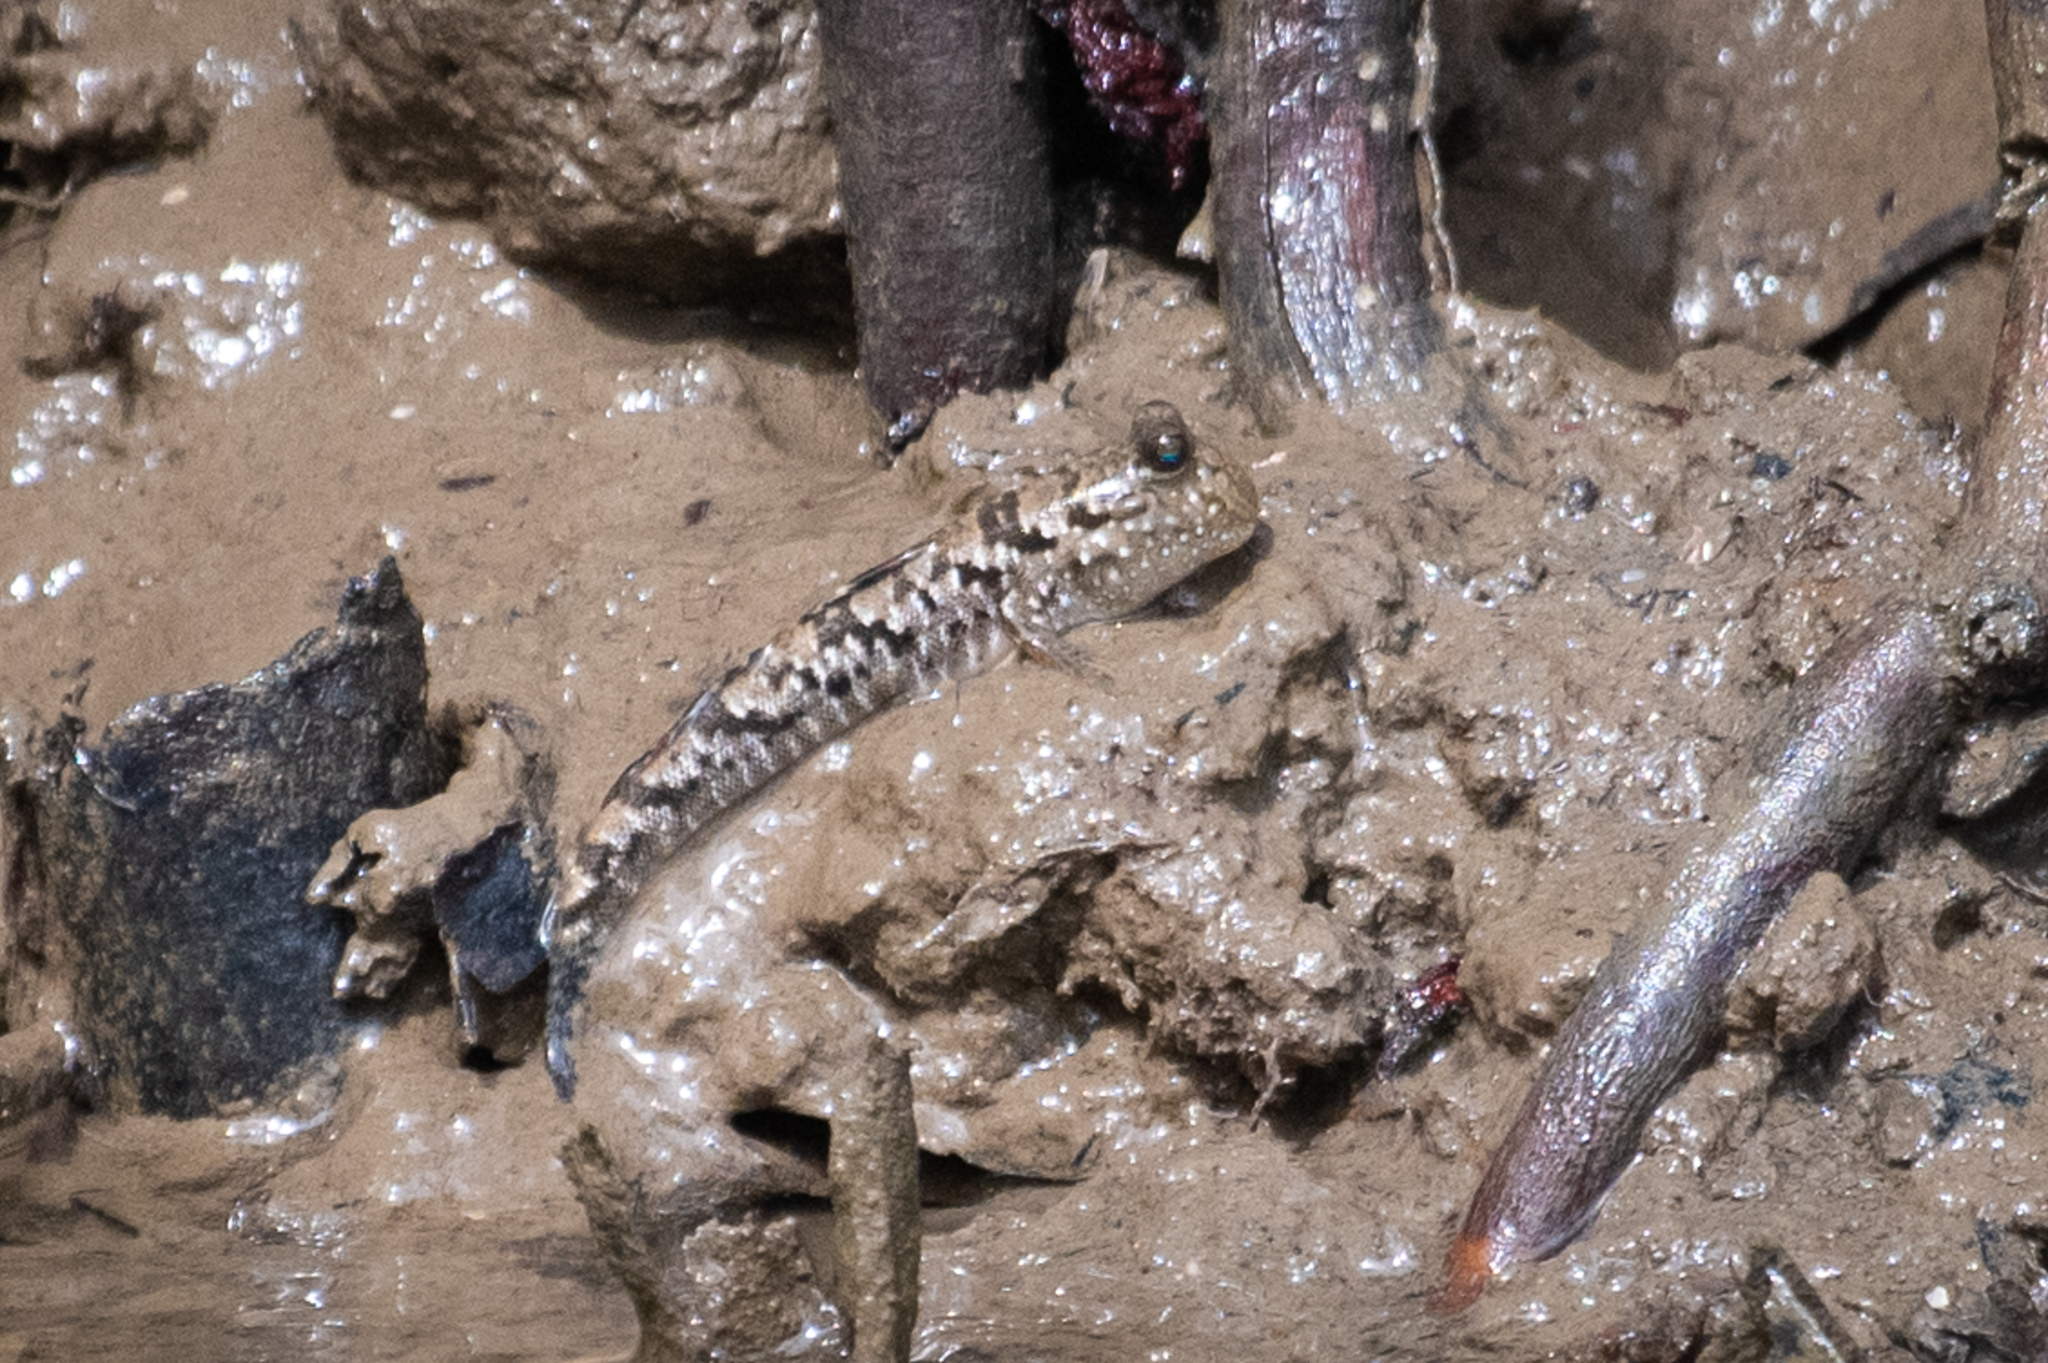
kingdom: Animalia
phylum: Chordata
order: Perciformes
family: Gobiidae
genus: Periophthalmus
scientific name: Periophthalmus argentilineatus
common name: Barred mudskipper
